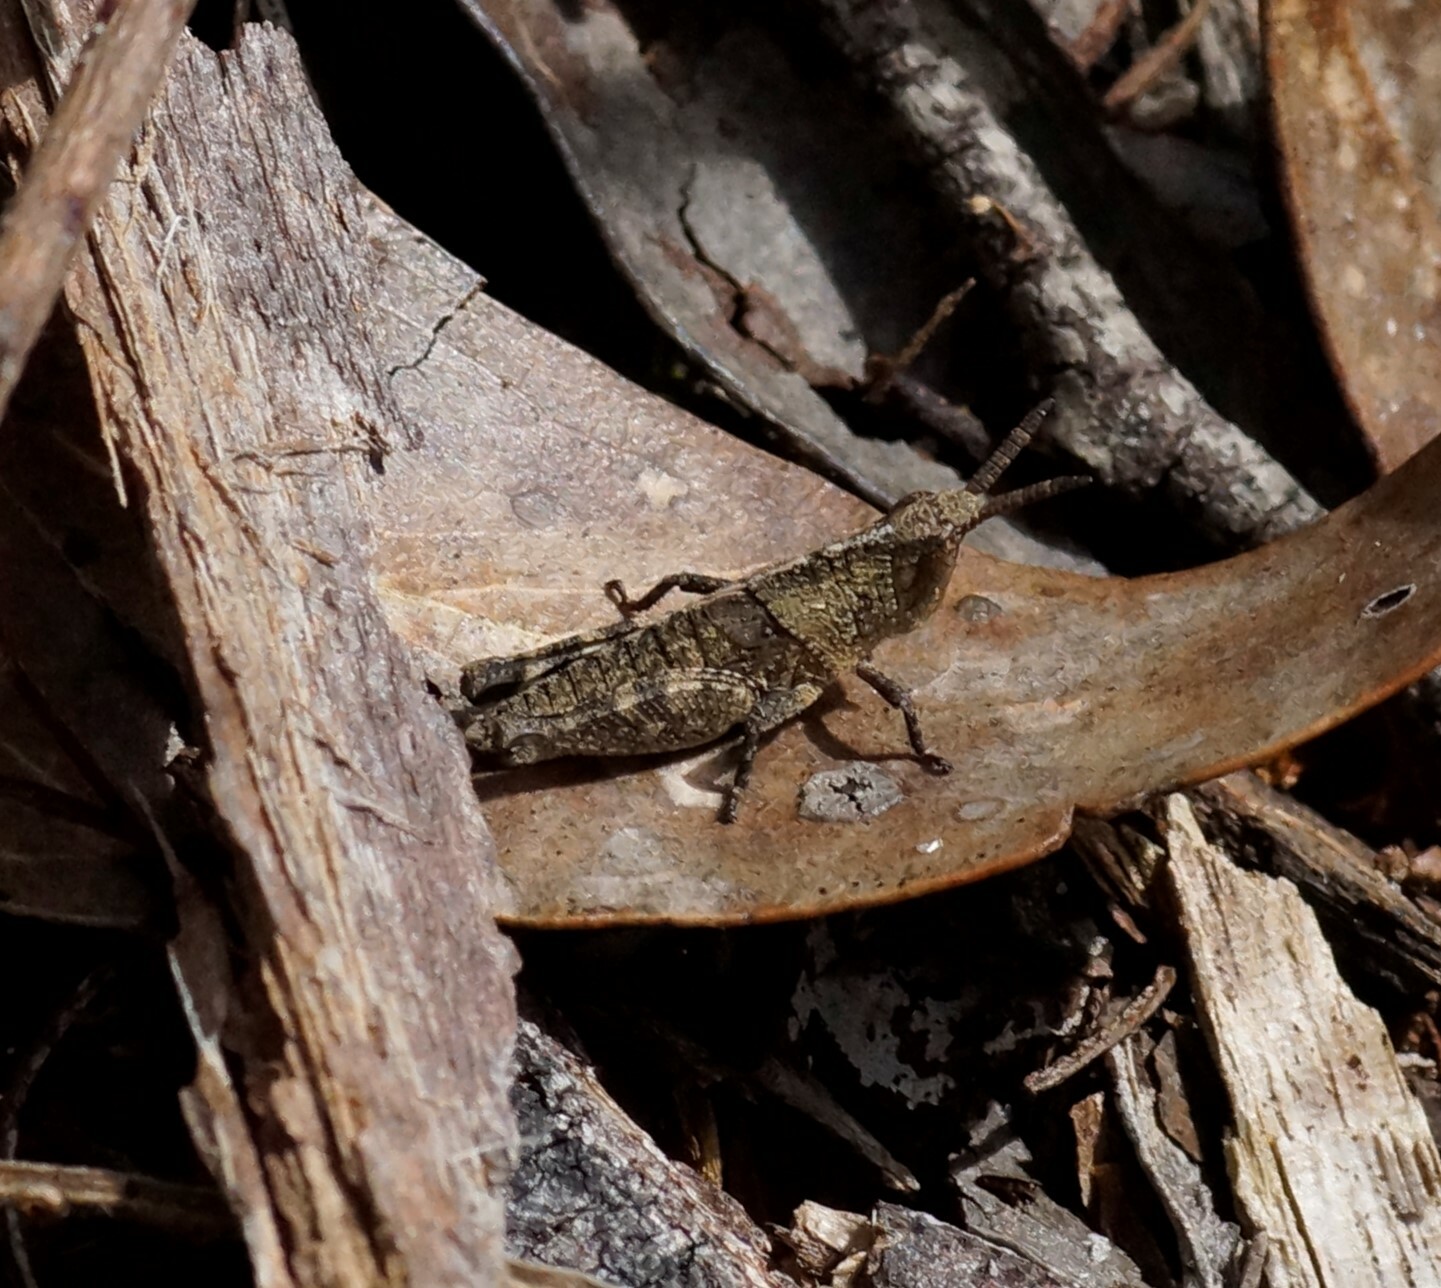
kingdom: Animalia
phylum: Arthropoda
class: Insecta
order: Orthoptera
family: Acrididae
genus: Goniaea
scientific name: Goniaea opomaloides
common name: Mimetic gumleaf grasshopper
